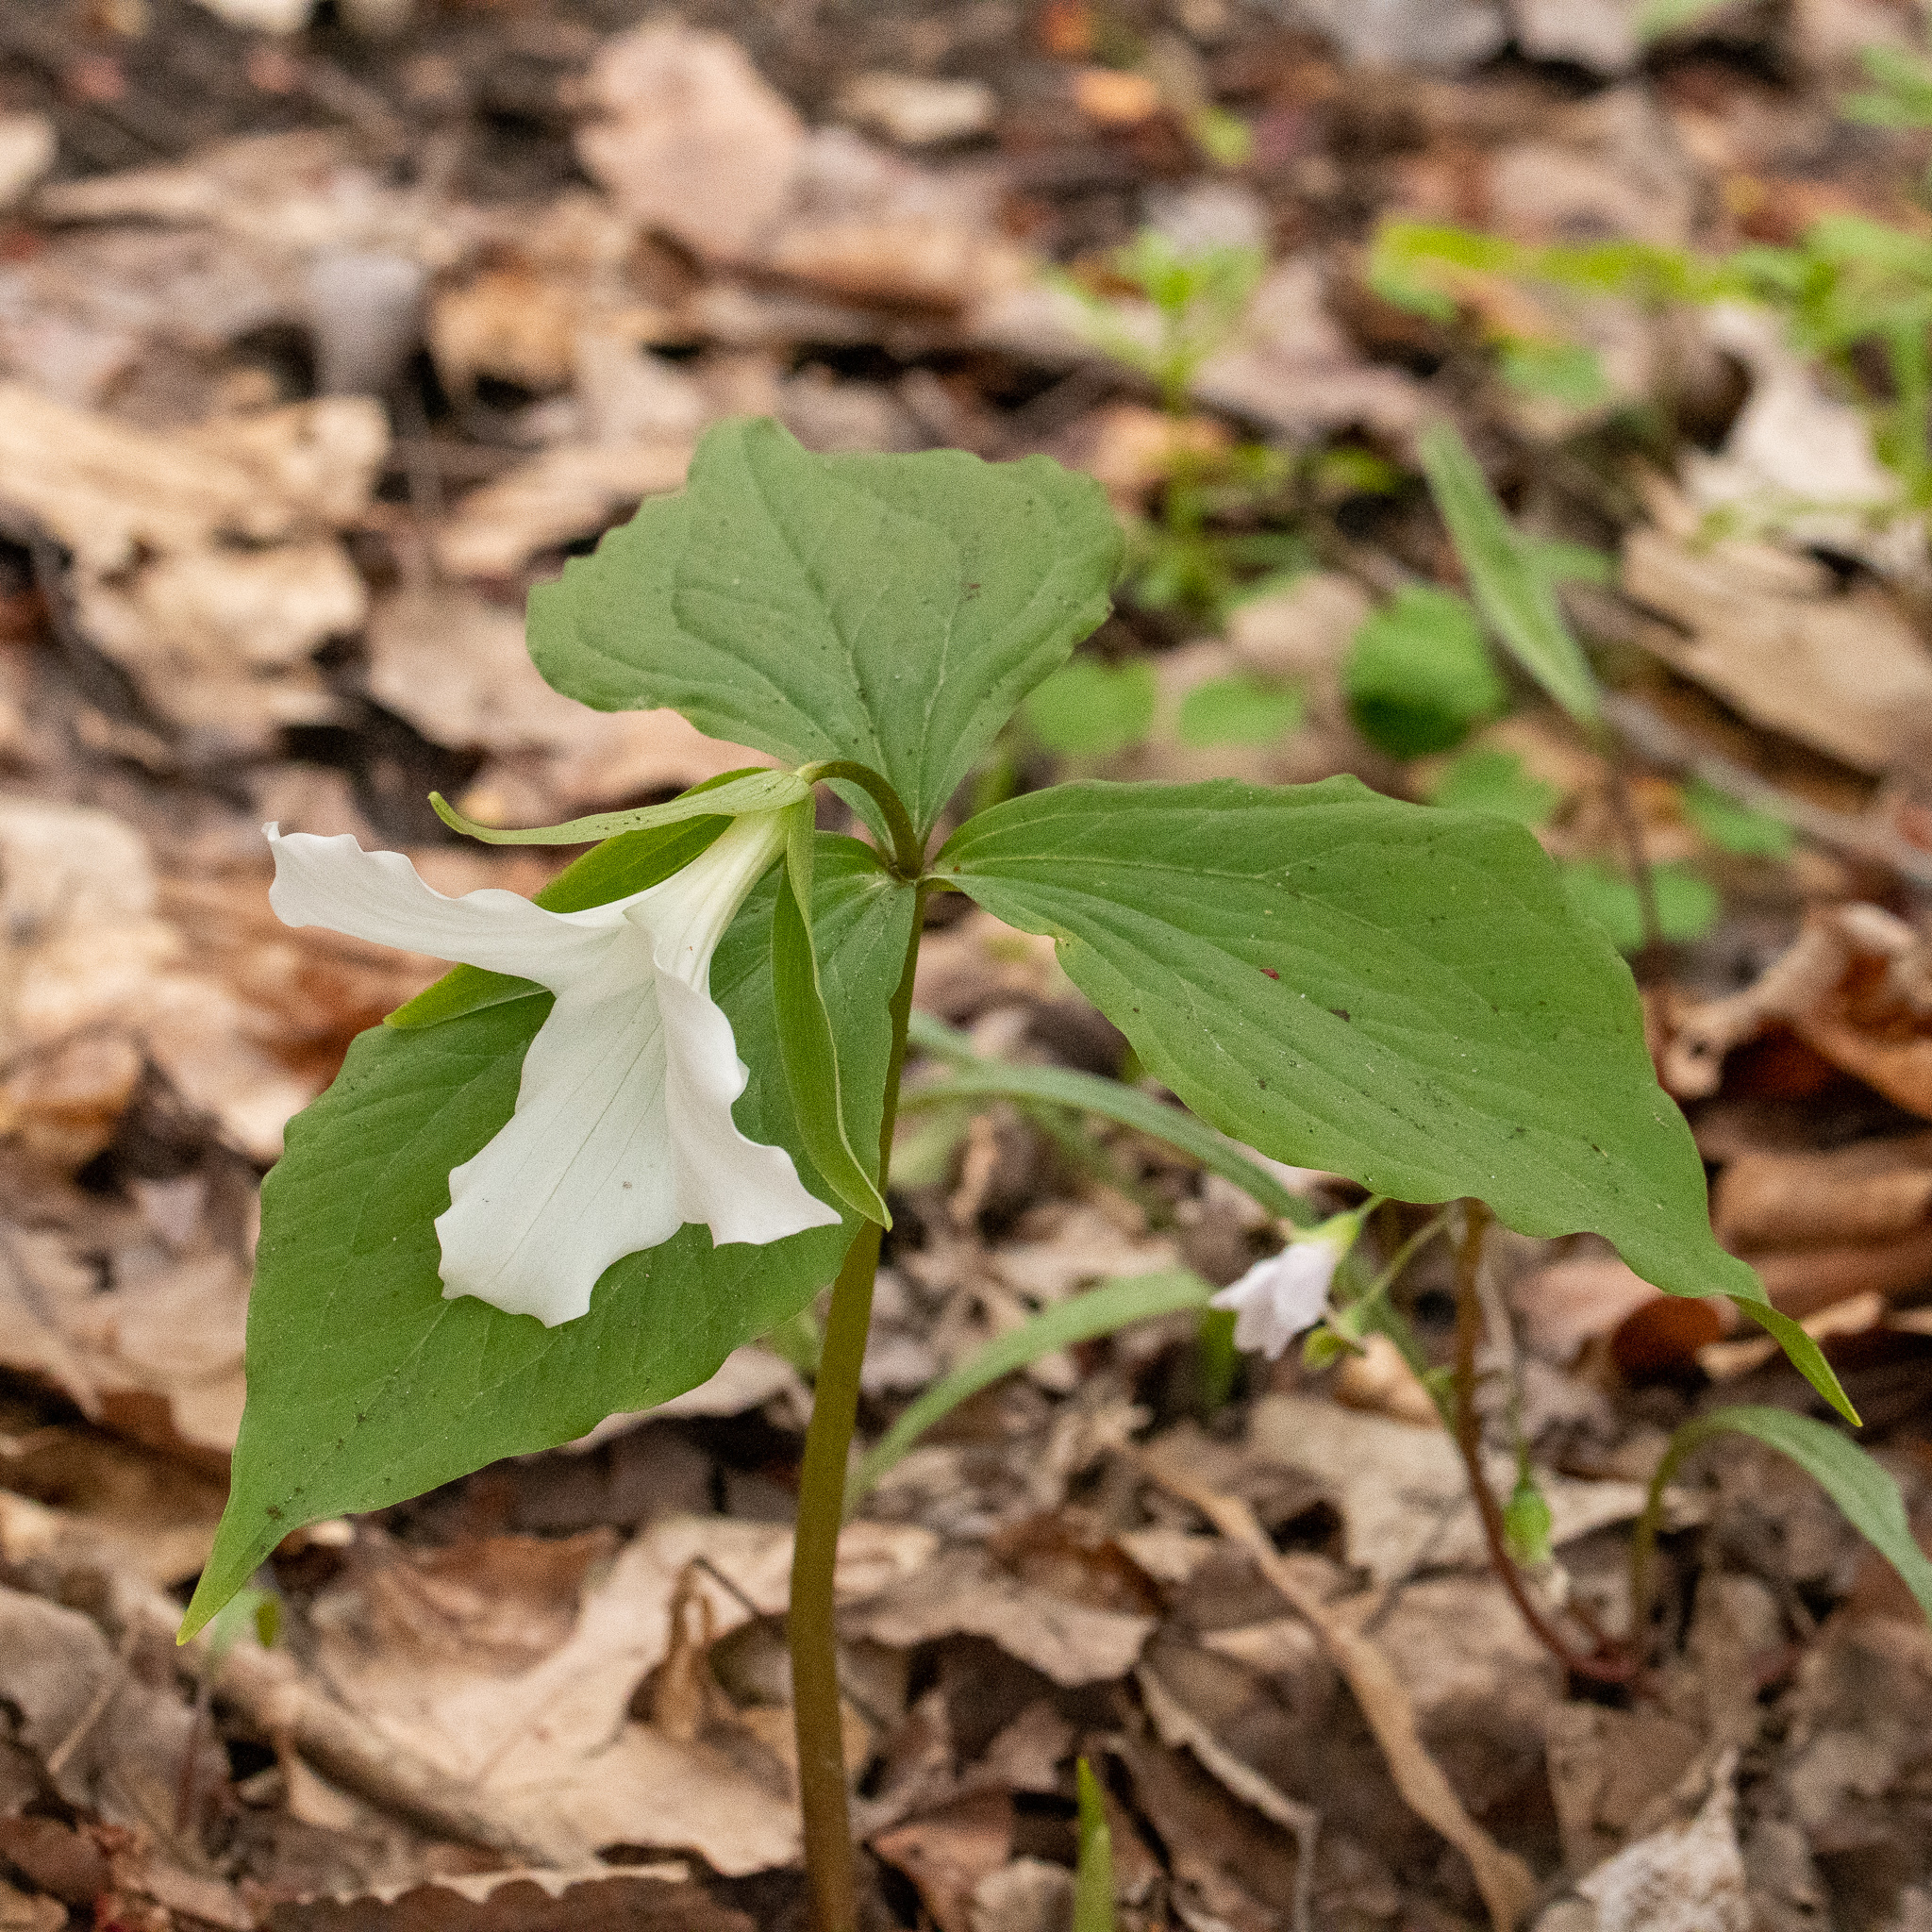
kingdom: Plantae
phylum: Tracheophyta
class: Liliopsida
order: Liliales
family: Melanthiaceae
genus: Trillium
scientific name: Trillium grandiflorum
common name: Great white trillium
